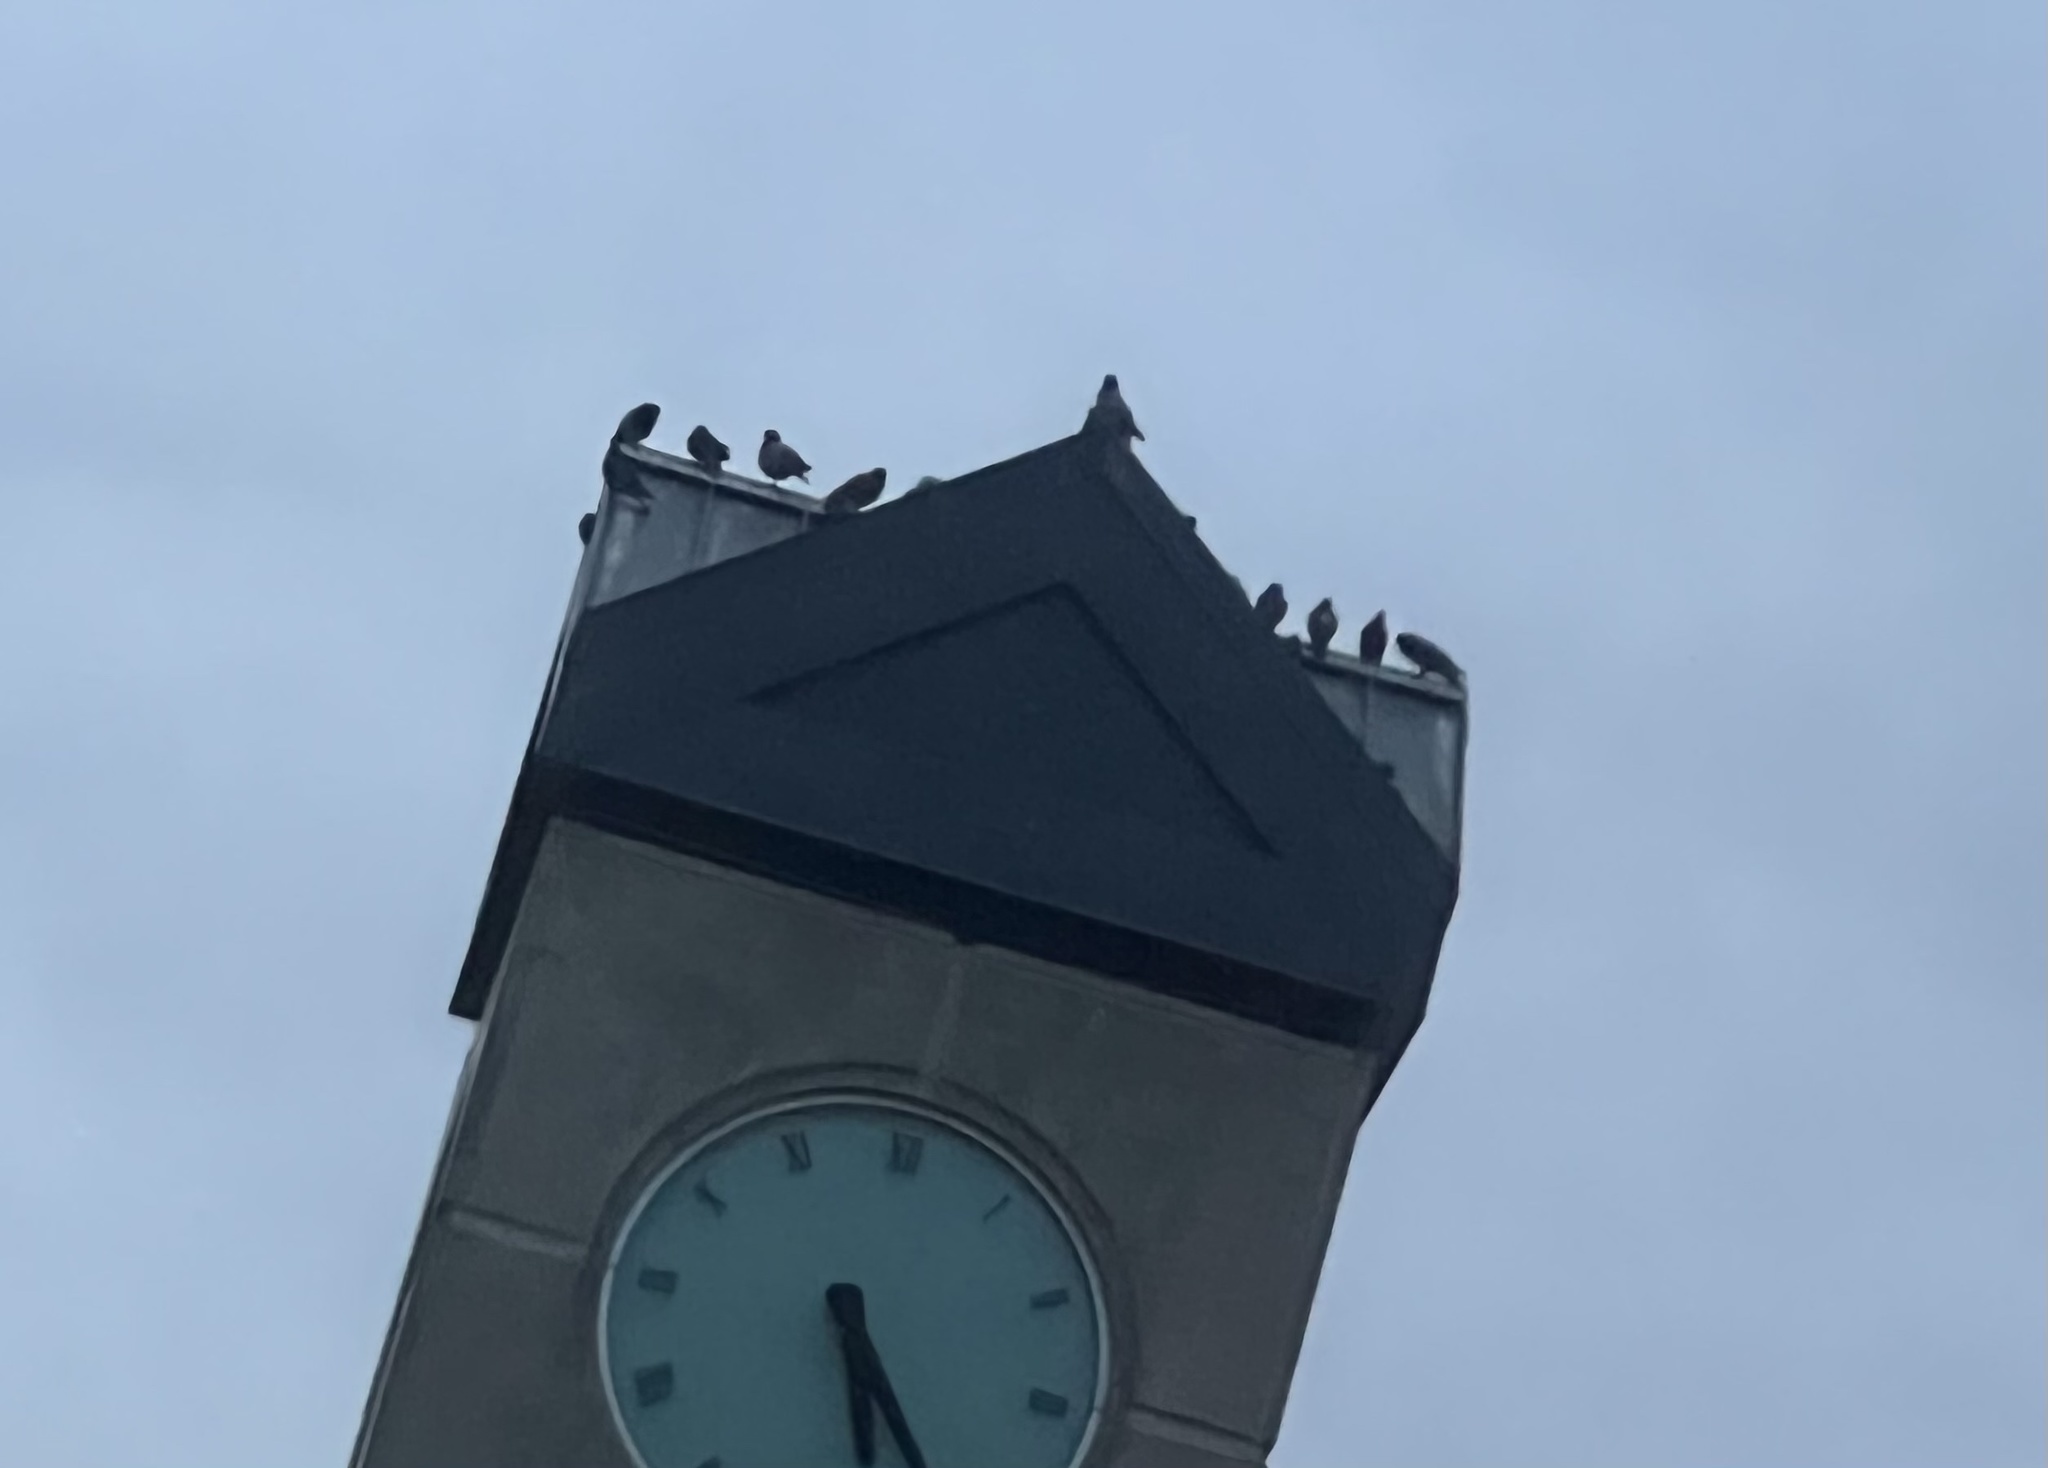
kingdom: Animalia
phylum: Chordata
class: Aves
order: Columbiformes
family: Columbidae
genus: Columba
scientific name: Columba livia
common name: Rock pigeon
